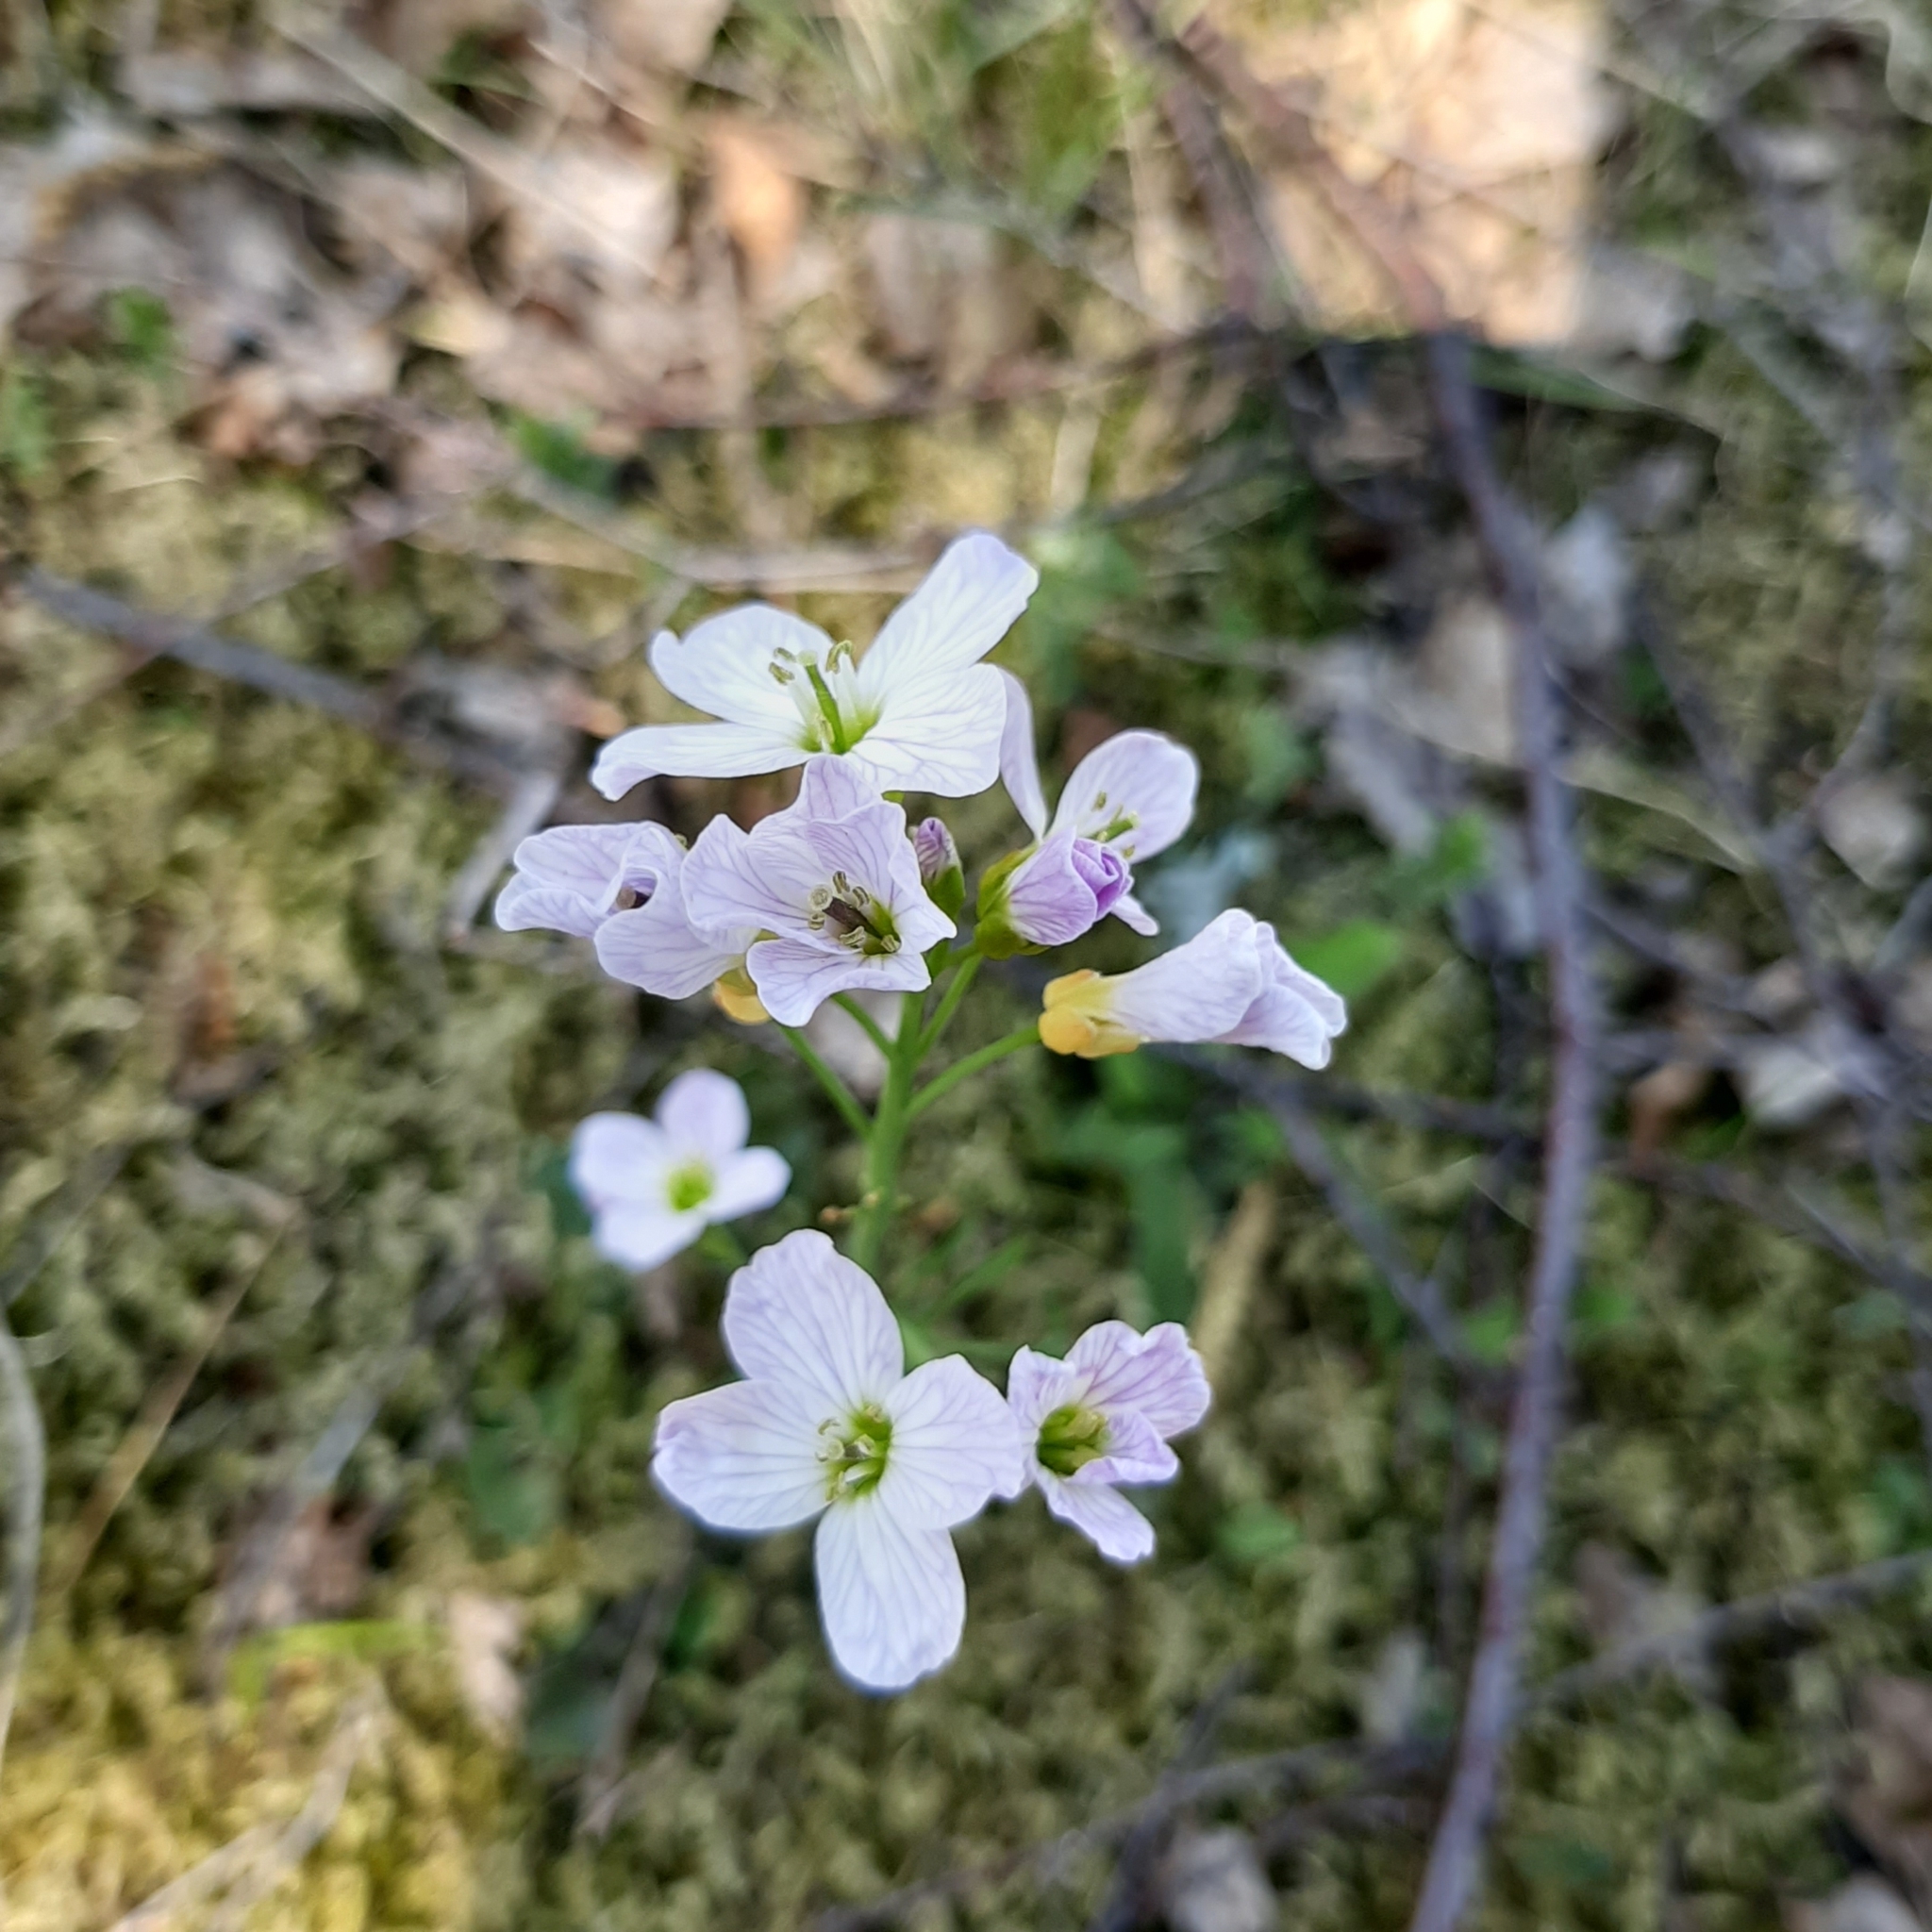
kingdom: Plantae
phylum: Tracheophyta
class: Magnoliopsida
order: Brassicales
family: Brassicaceae
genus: Cardamine
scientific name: Cardamine pratensis
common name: Cuckoo flower
